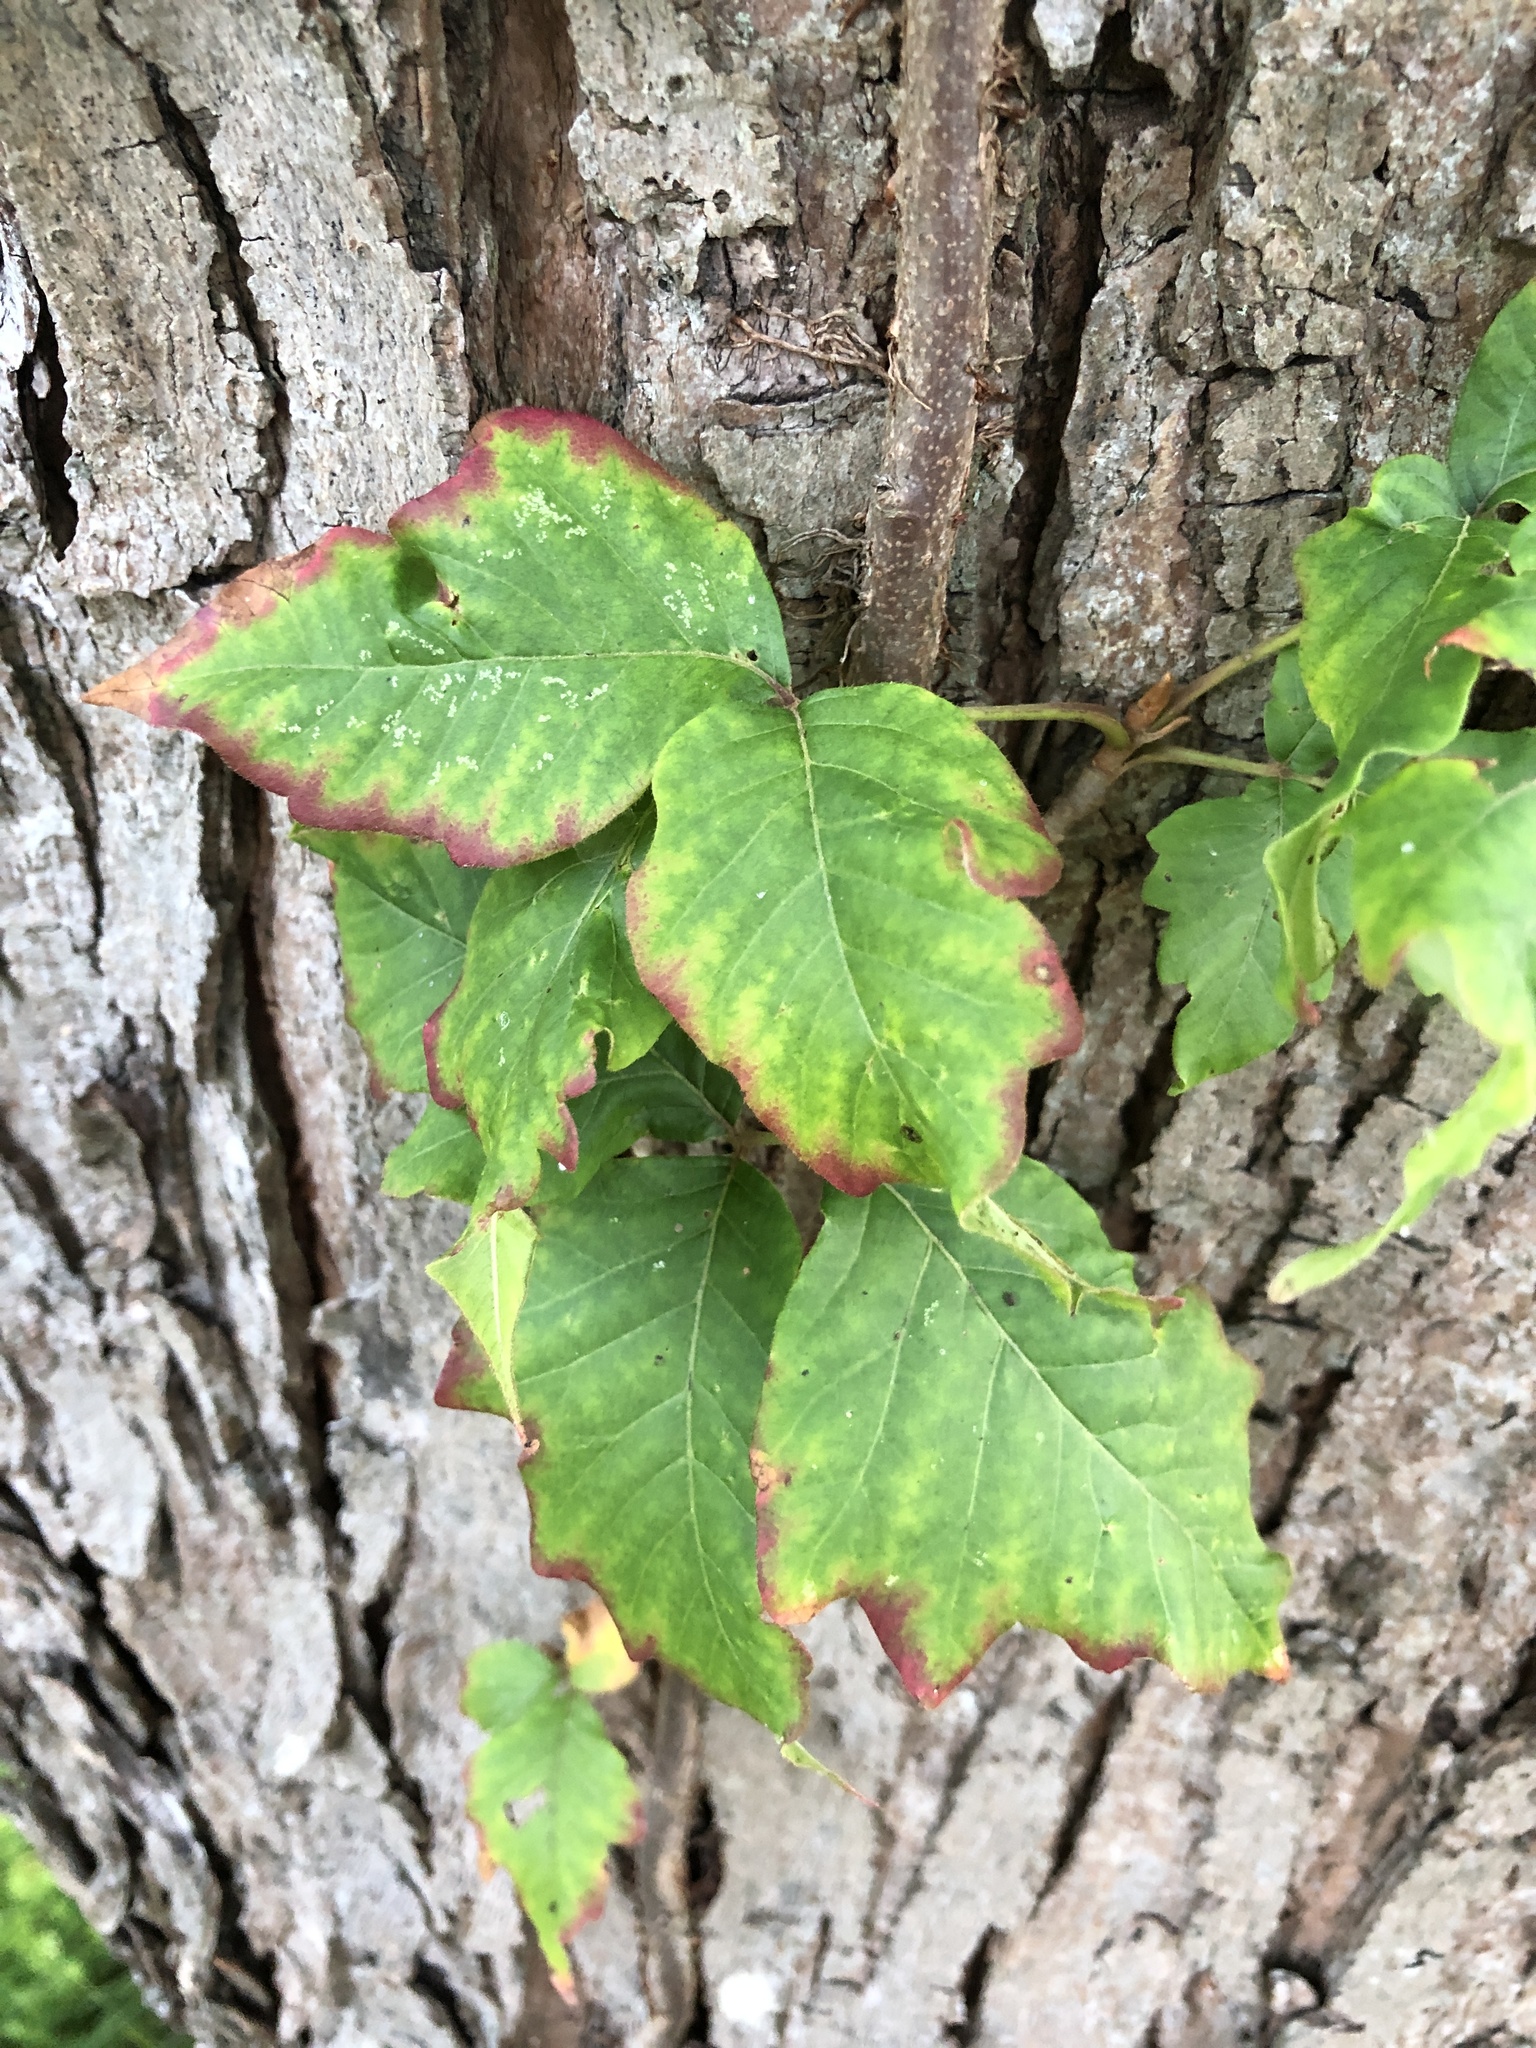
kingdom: Plantae
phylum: Tracheophyta
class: Magnoliopsida
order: Sapindales
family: Anacardiaceae
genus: Toxicodendron
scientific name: Toxicodendron radicans
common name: Poison ivy
